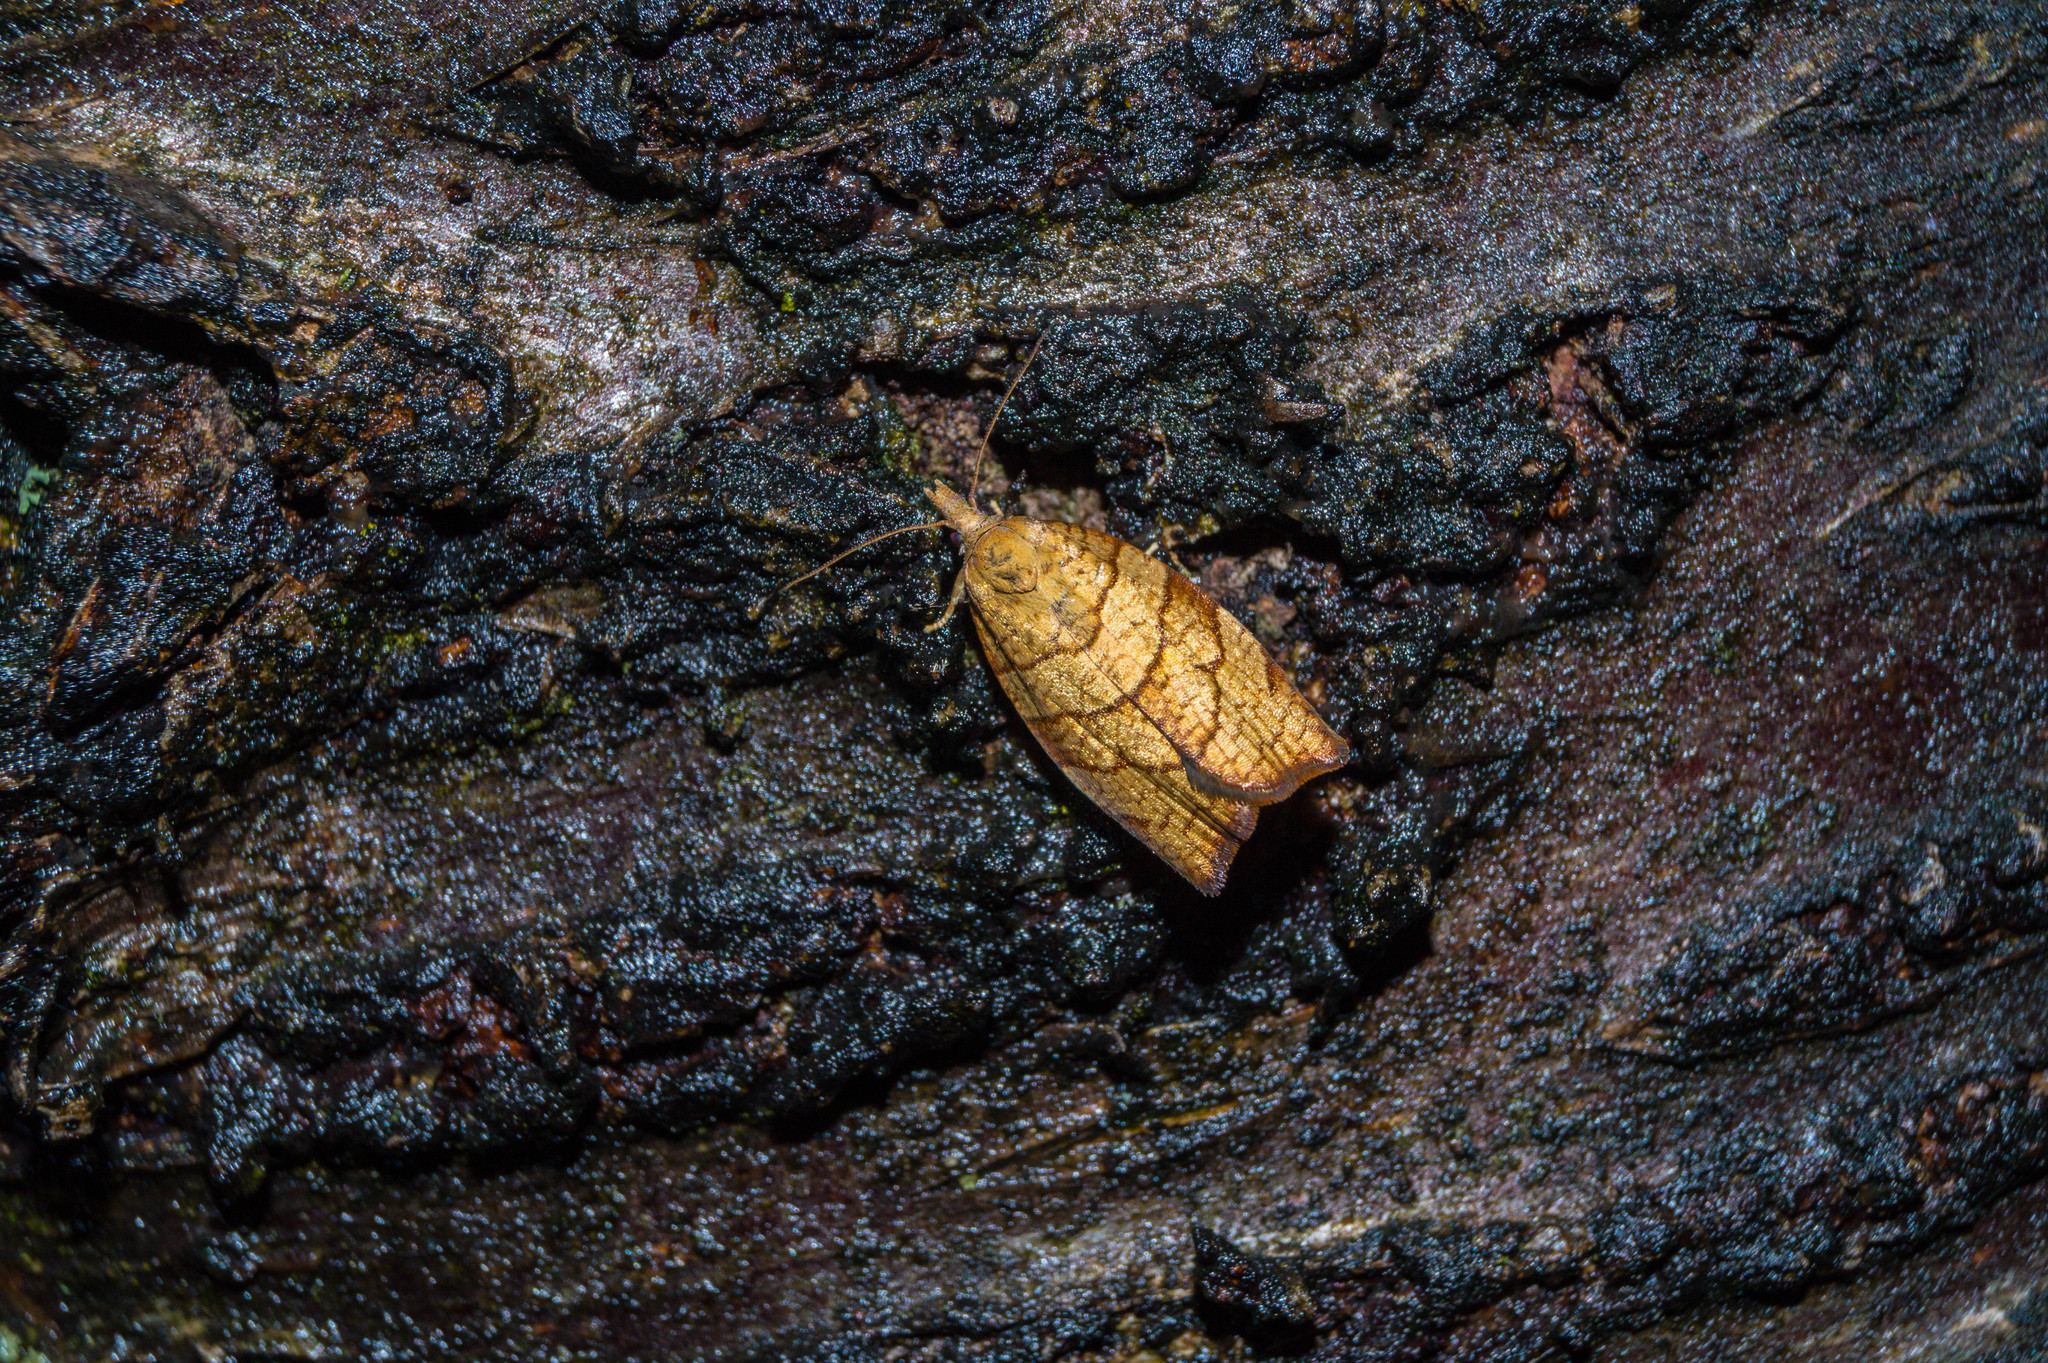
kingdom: Animalia
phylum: Arthropoda
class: Insecta
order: Lepidoptera
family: Tortricidae
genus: Pandemis
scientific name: Pandemis corylana
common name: Chequered fruit-tree tortrix
